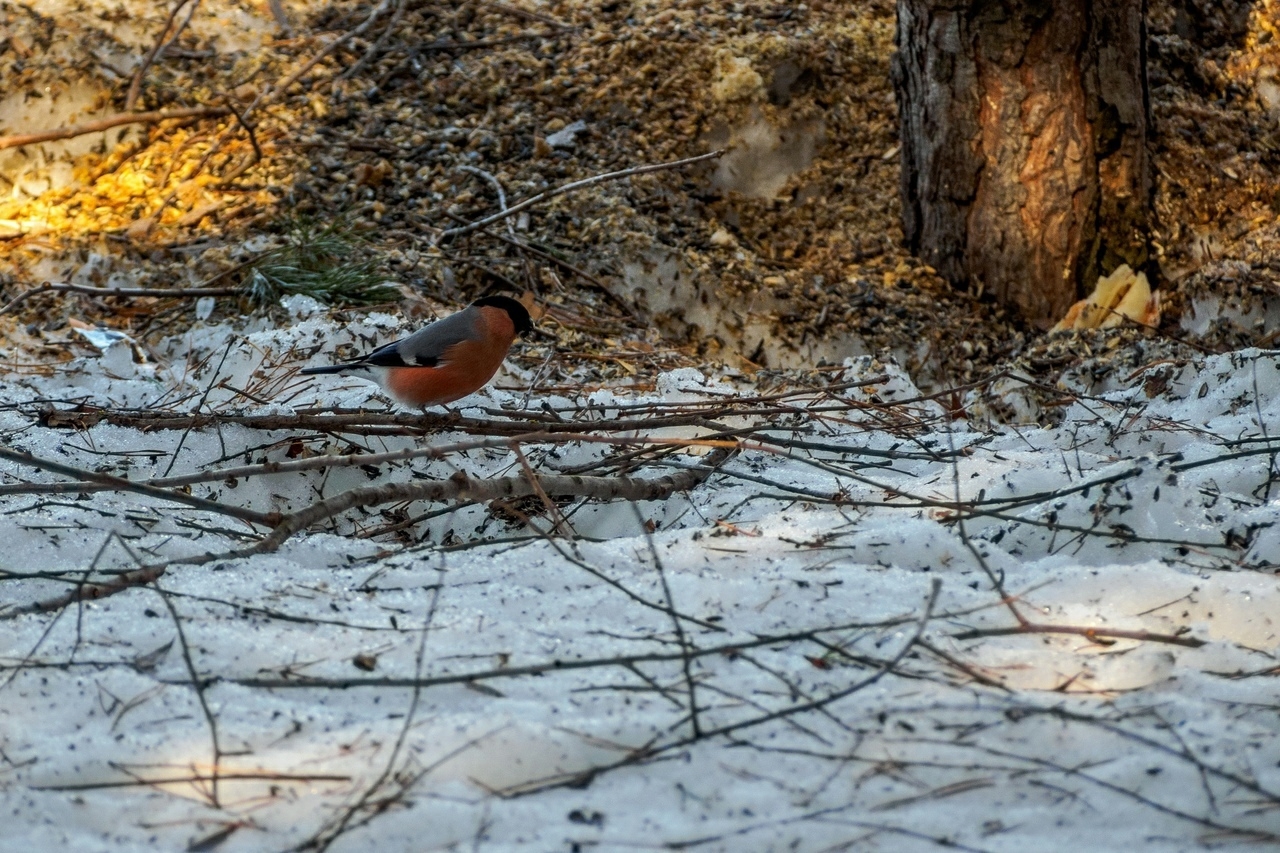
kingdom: Animalia
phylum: Chordata
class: Aves
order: Passeriformes
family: Fringillidae
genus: Pyrrhula
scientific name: Pyrrhula pyrrhula
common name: Eurasian bullfinch
